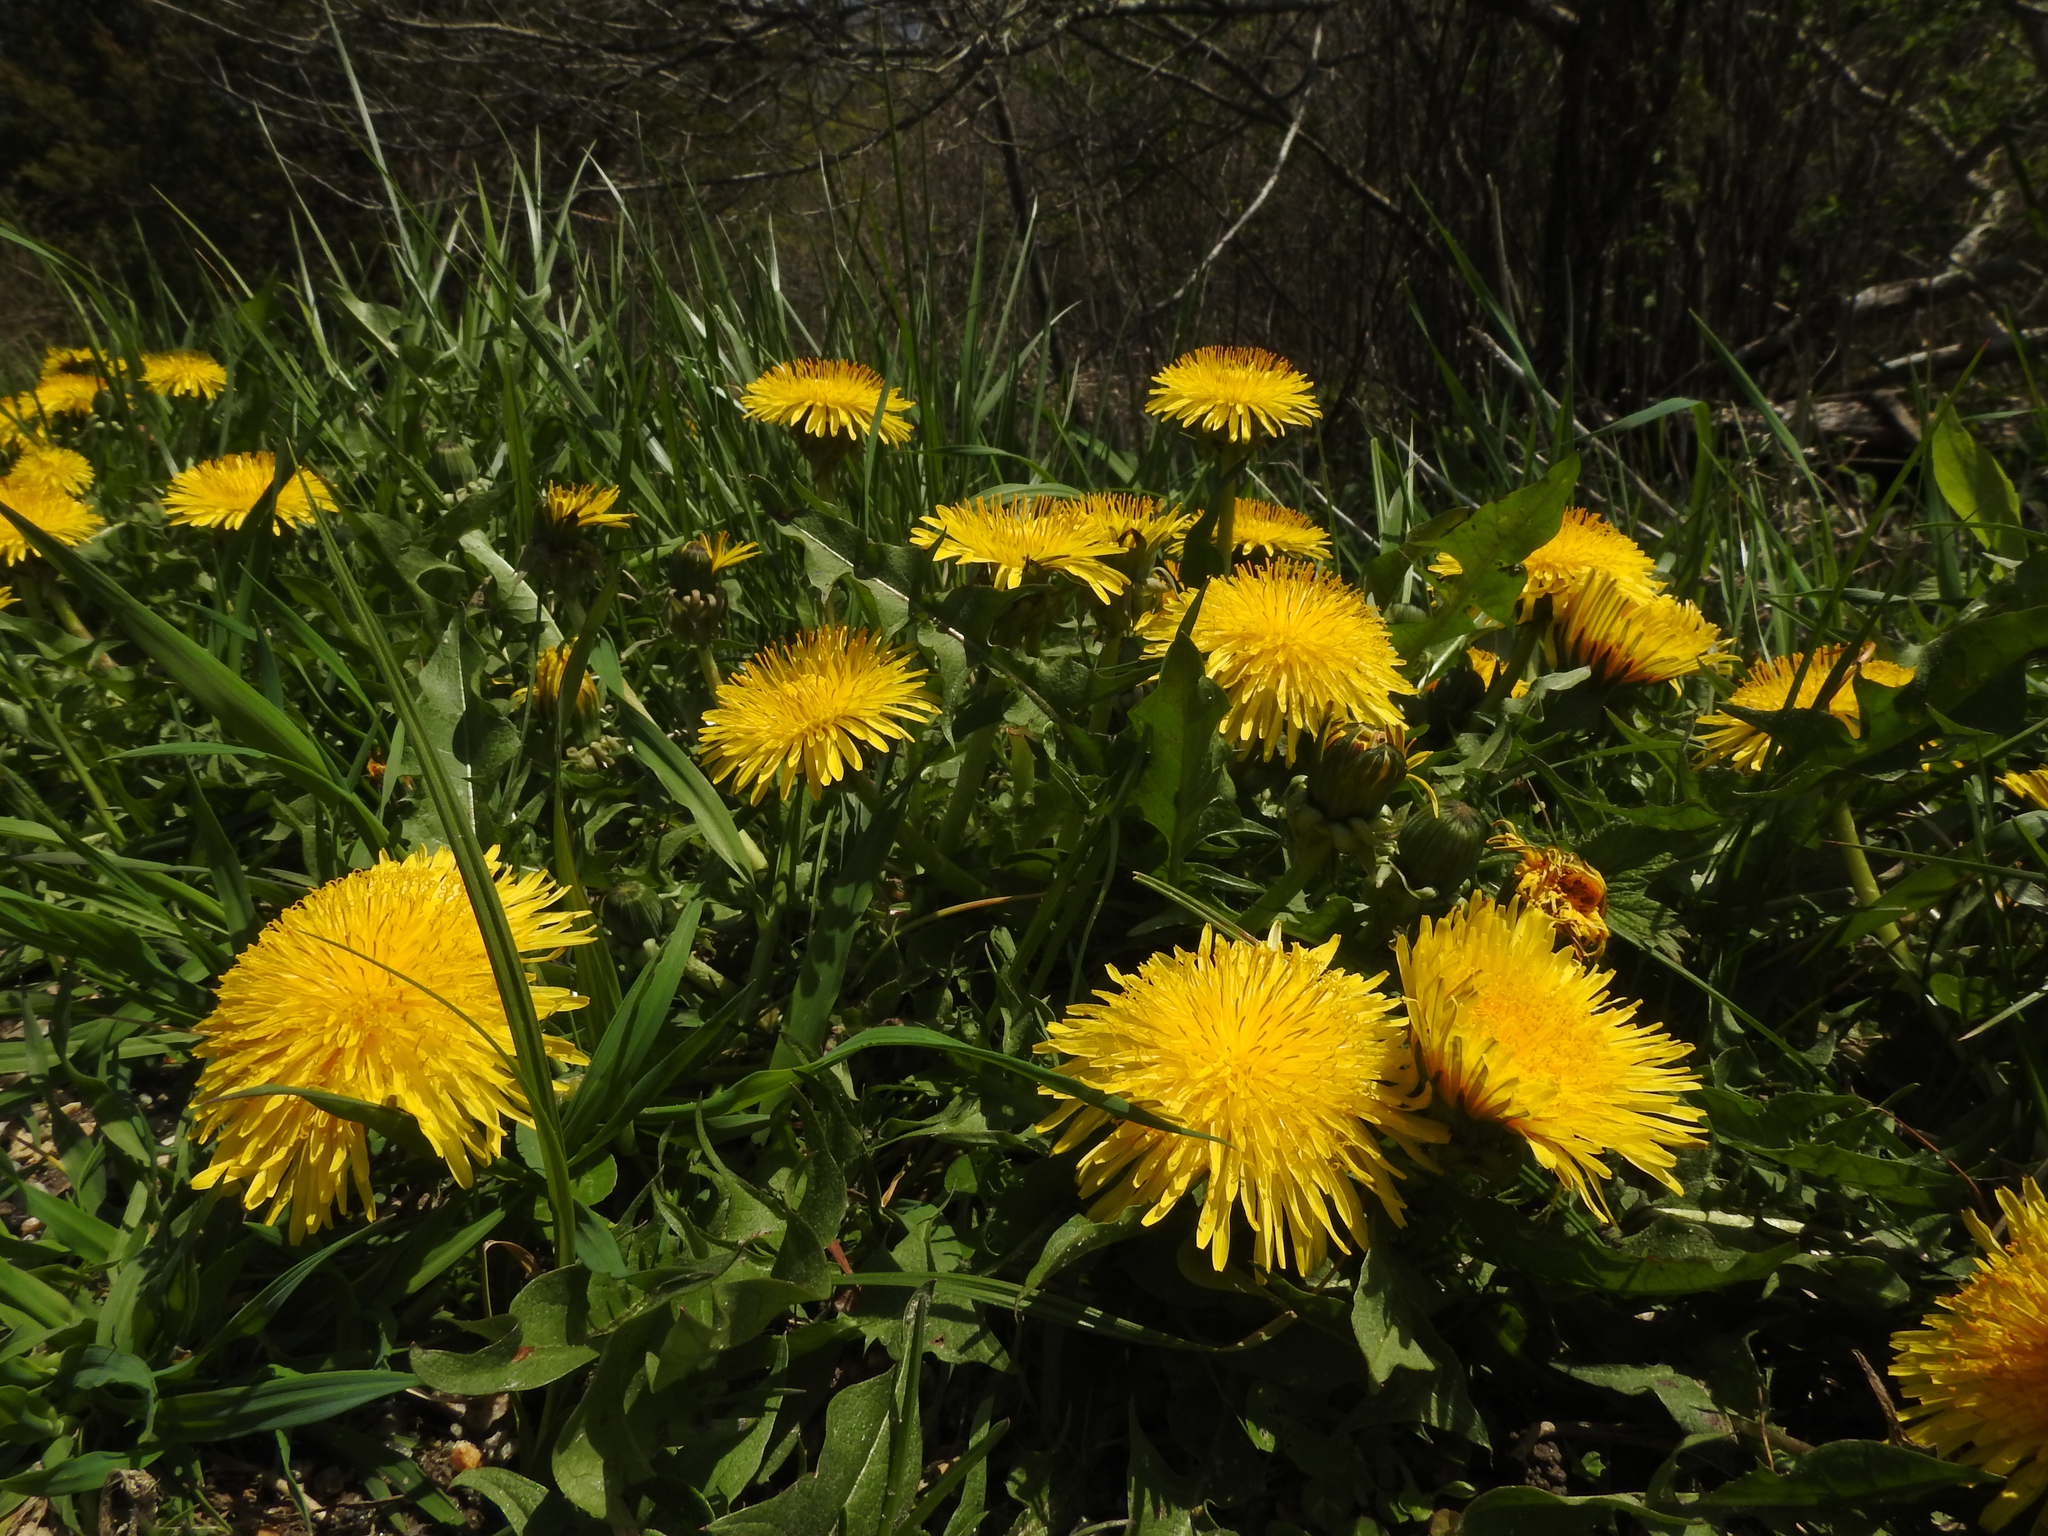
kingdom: Plantae
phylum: Tracheophyta
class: Magnoliopsida
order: Asterales
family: Asteraceae
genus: Taraxacum
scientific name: Taraxacum officinale
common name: Common dandelion
